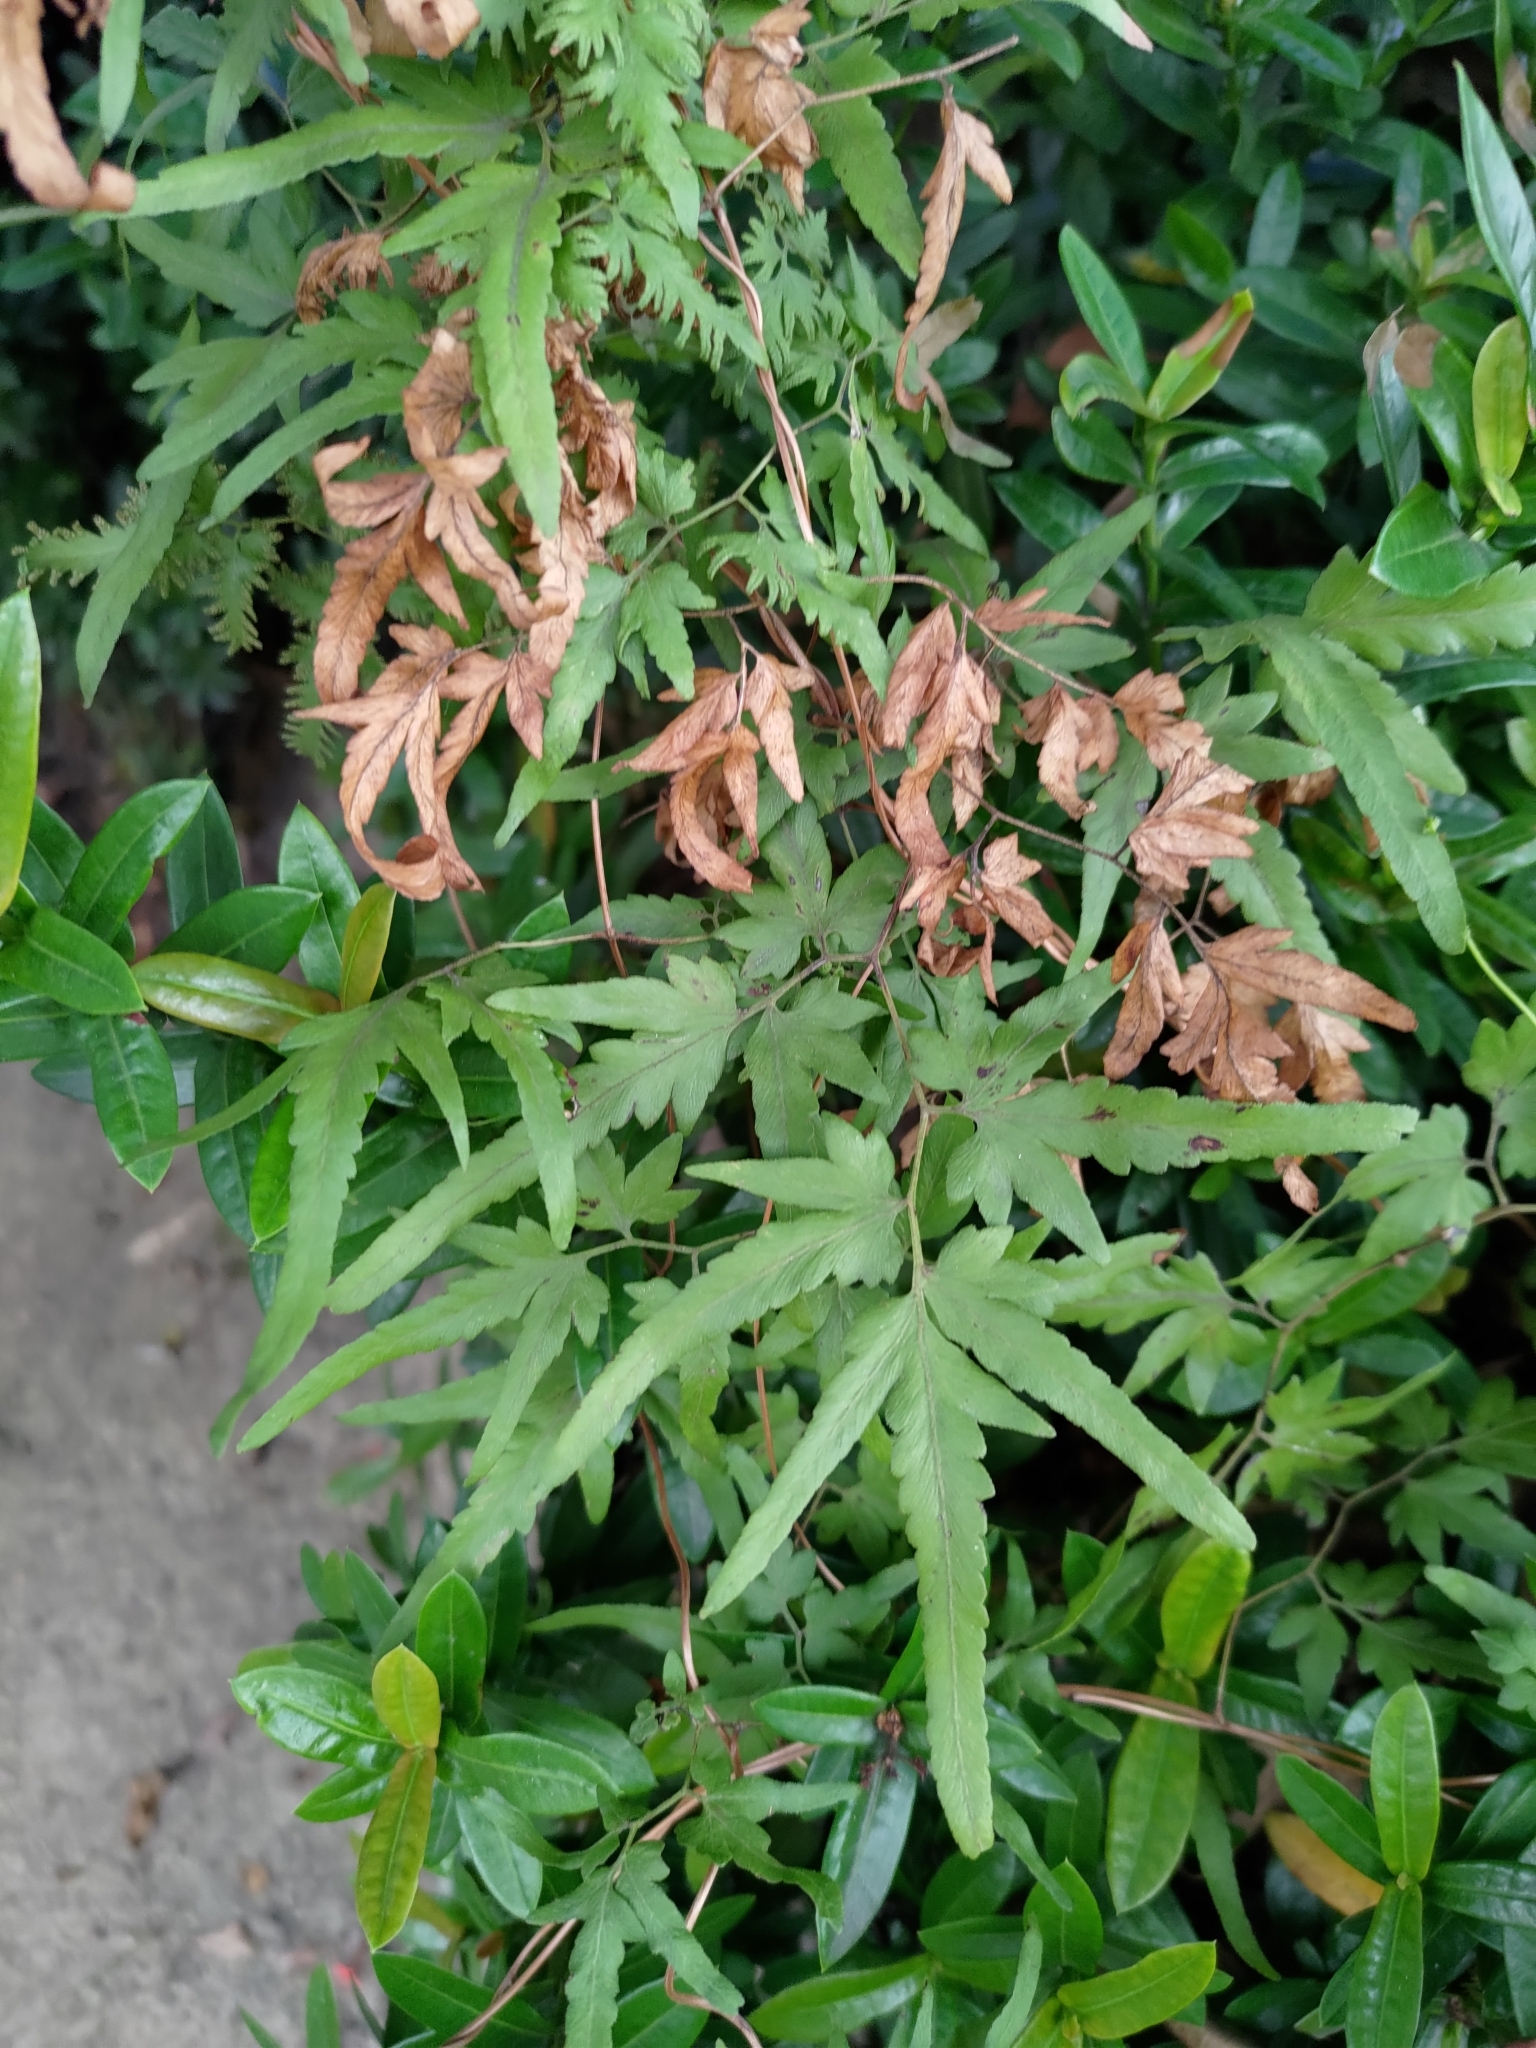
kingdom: Plantae
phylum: Tracheophyta
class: Polypodiopsida
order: Schizaeales
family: Lygodiaceae
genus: Lygodium
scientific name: Lygodium japonicum
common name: Japanese climbing fern
